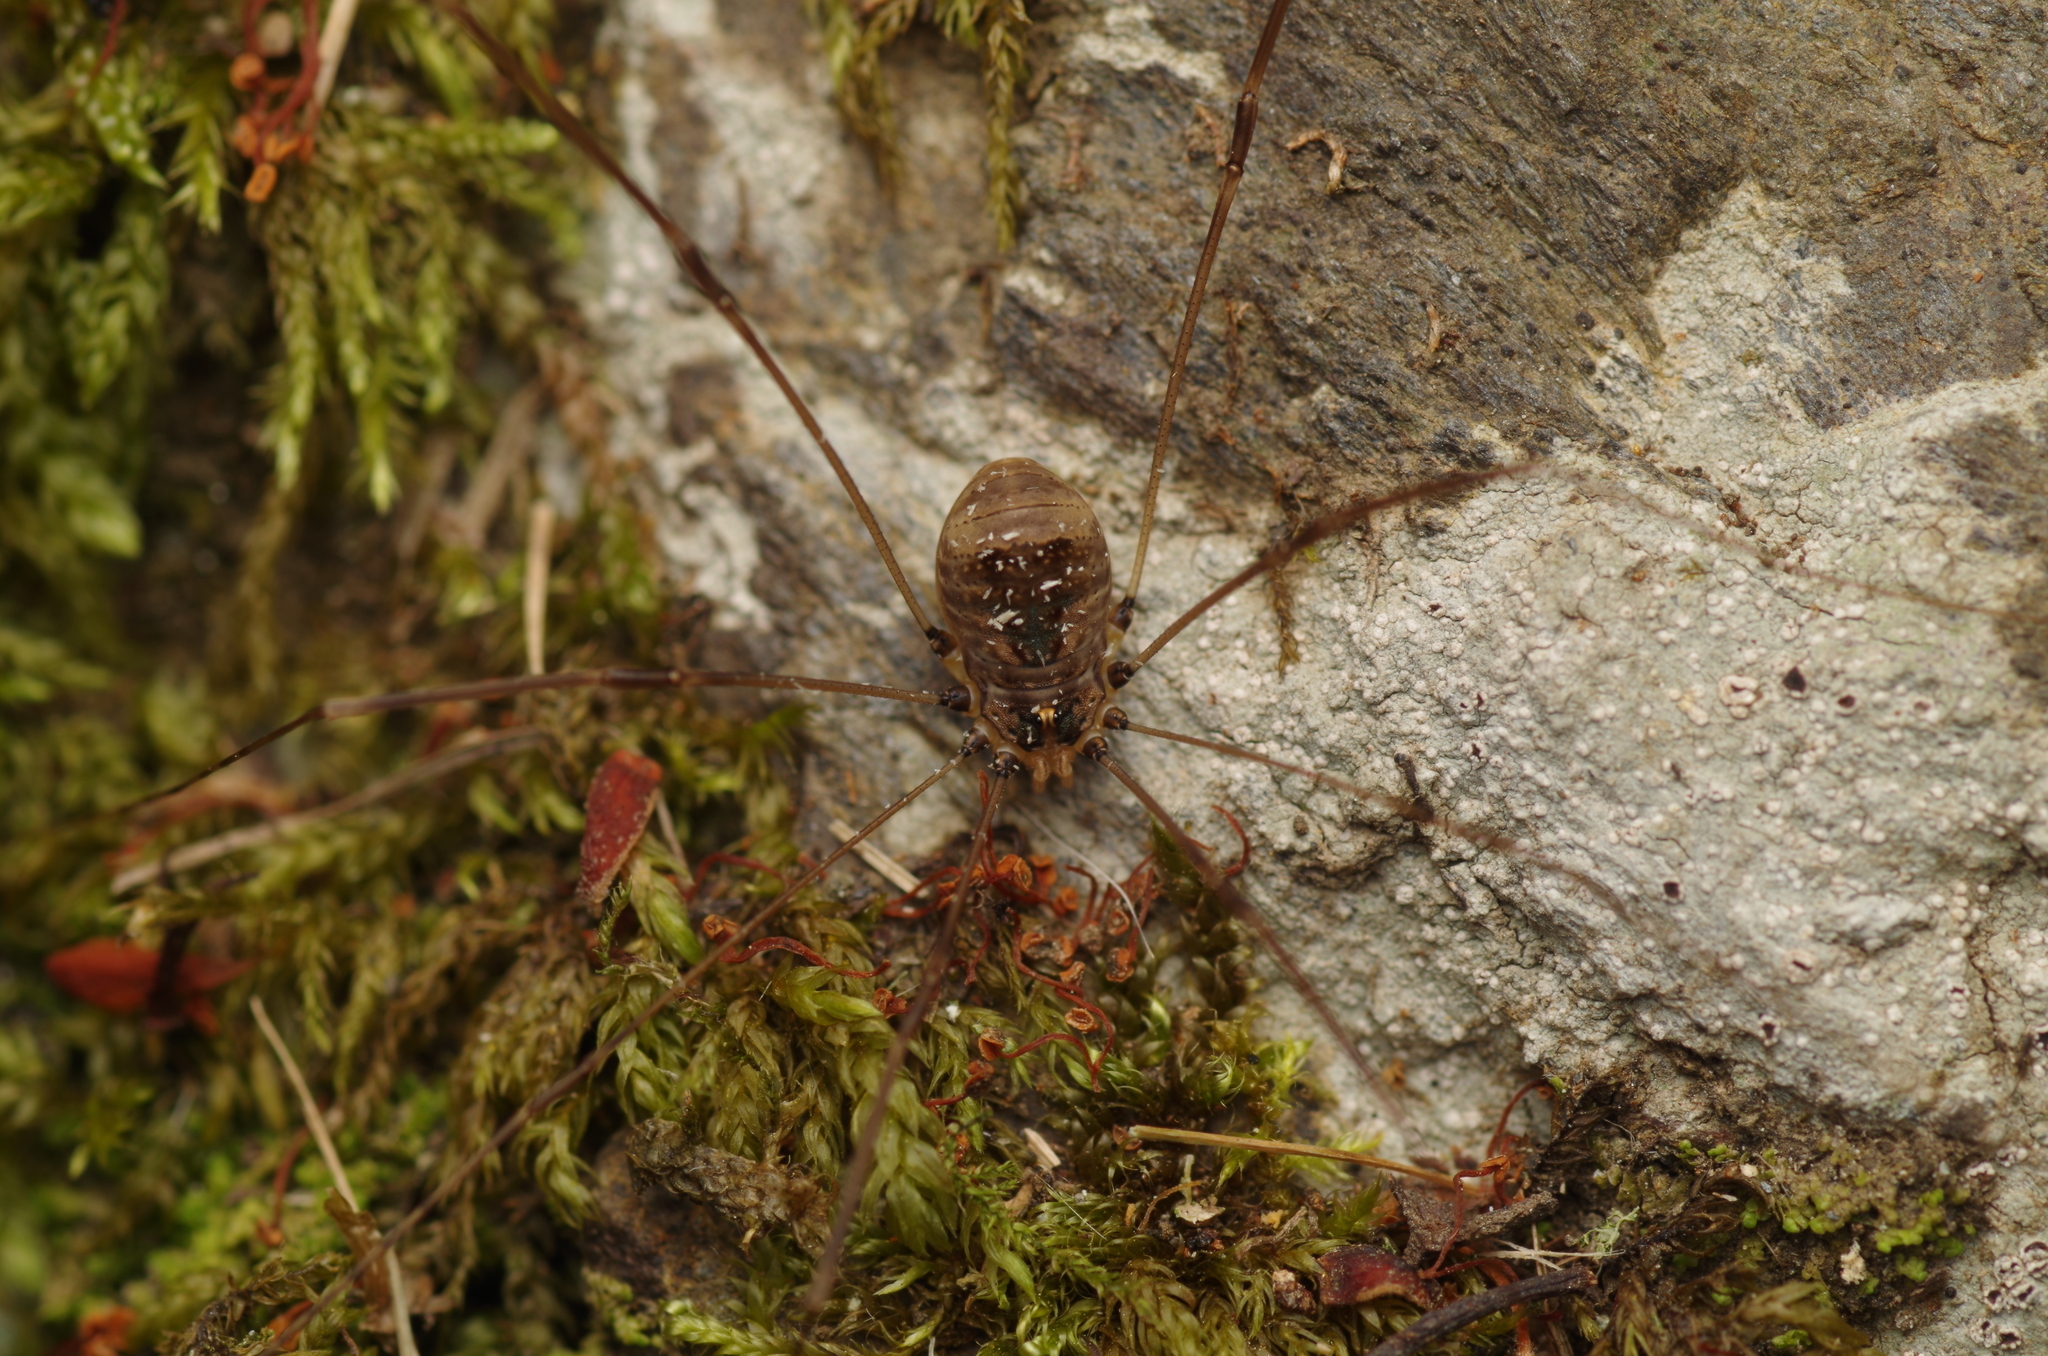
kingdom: Animalia
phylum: Arthropoda
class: Arachnida
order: Opiliones
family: Sclerosomatidae
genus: Leiobunum
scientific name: Leiobunum blackwalli
